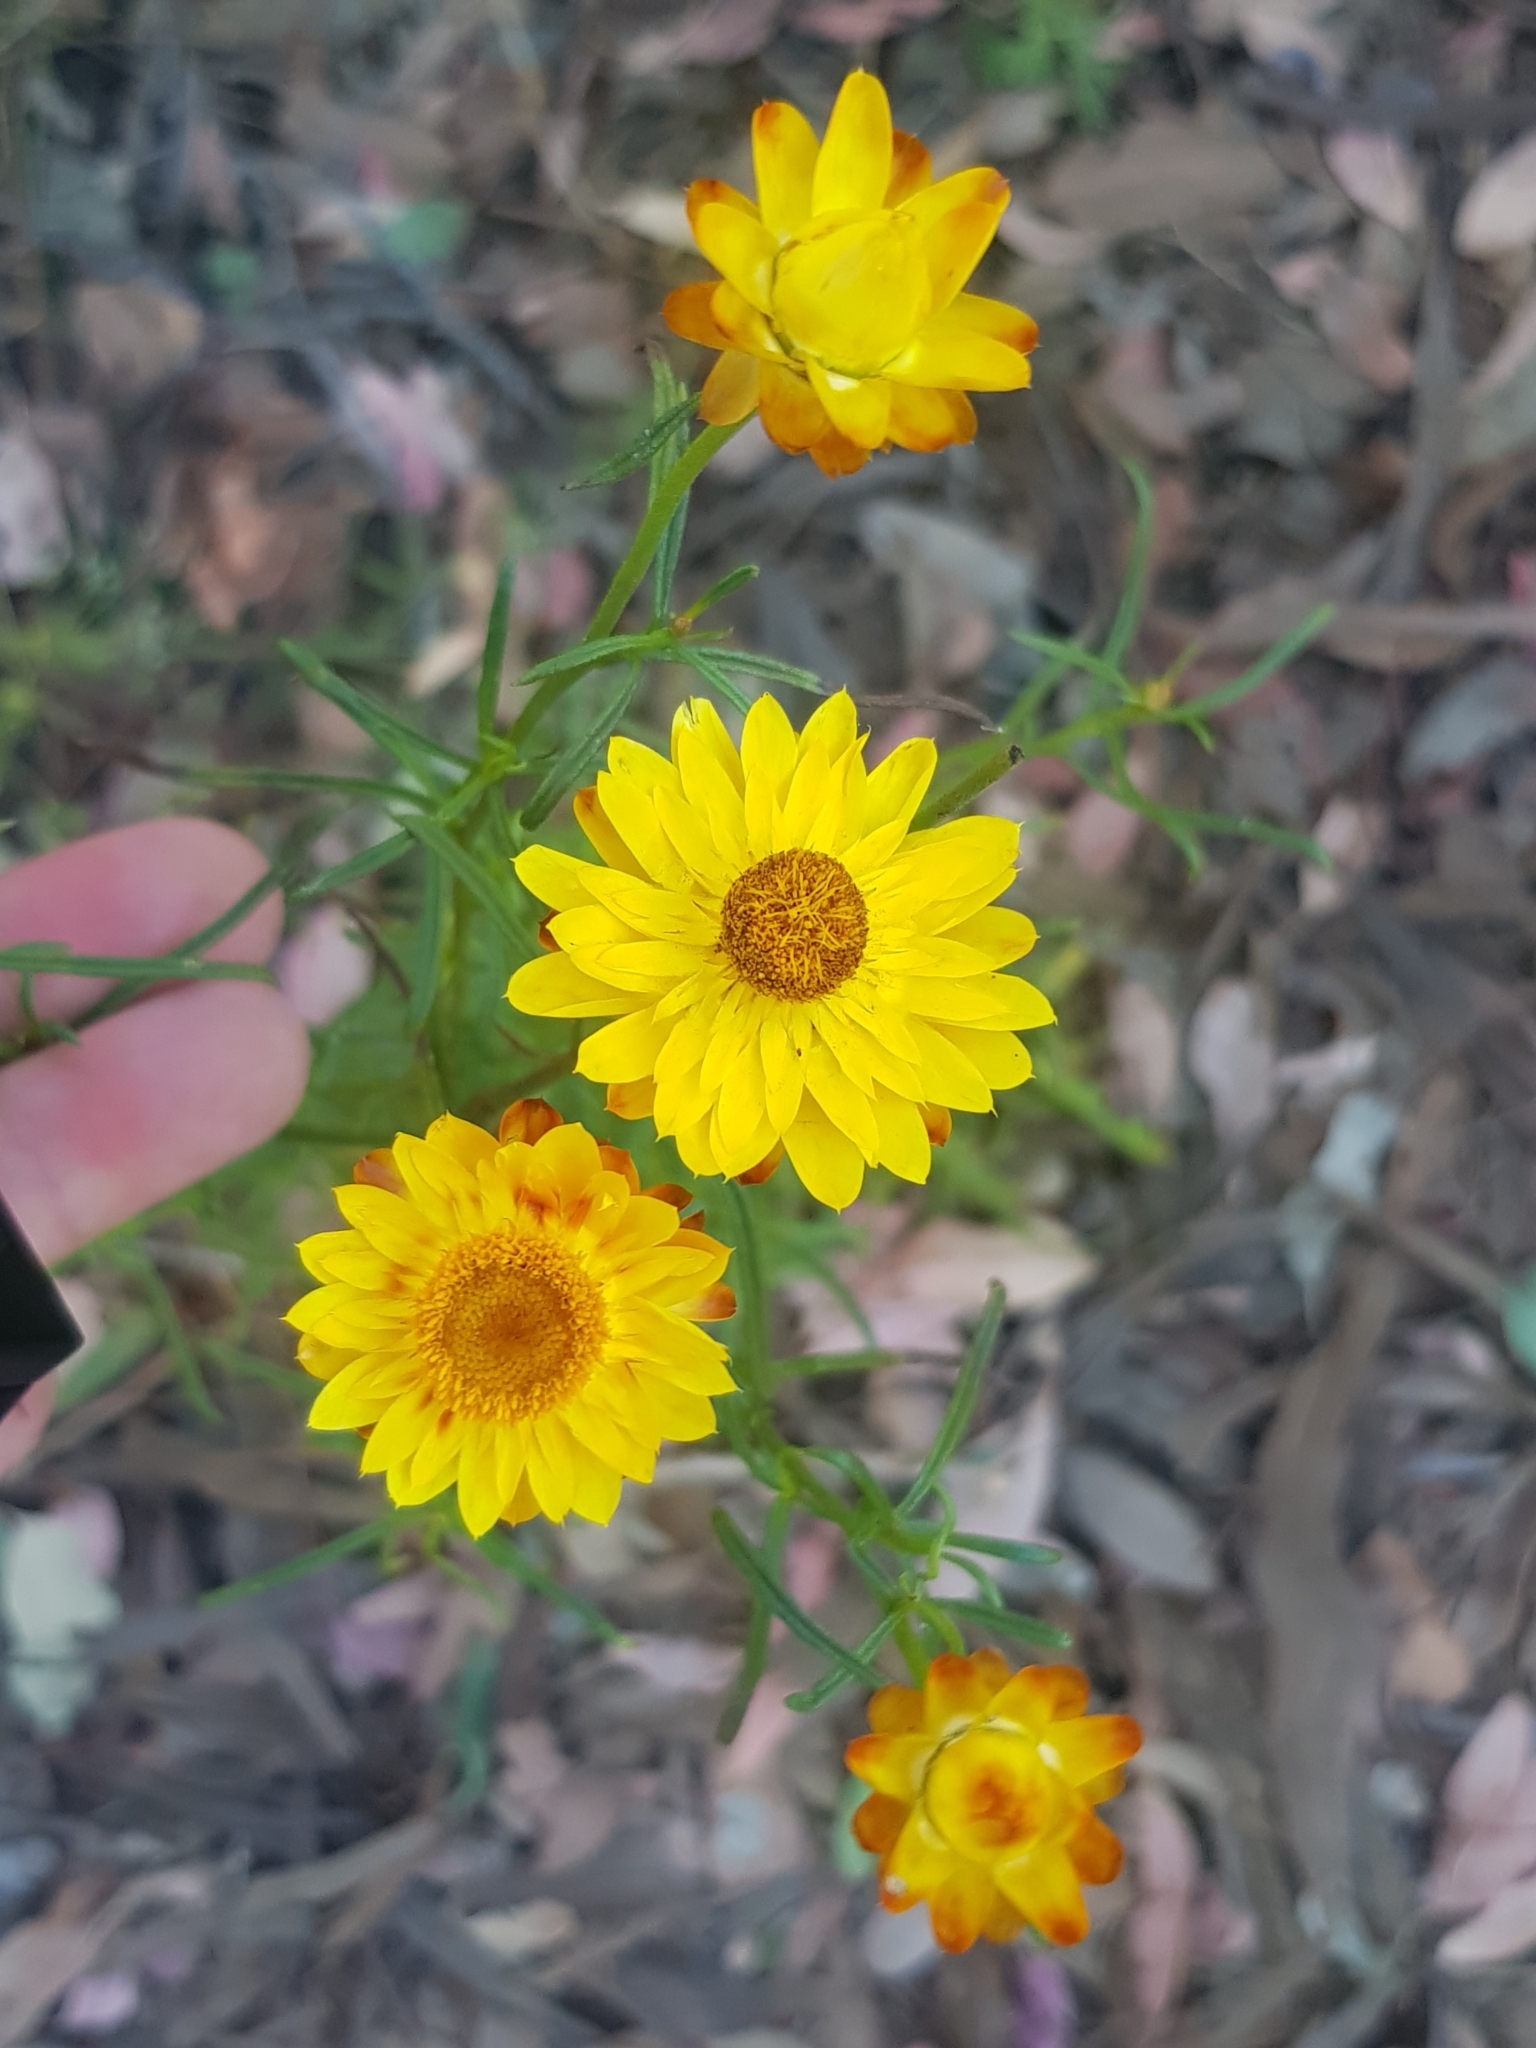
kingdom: Plantae
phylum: Tracheophyta
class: Magnoliopsida
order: Asterales
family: Asteraceae
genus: Xerochrysum
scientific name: Xerochrysum viscosum
